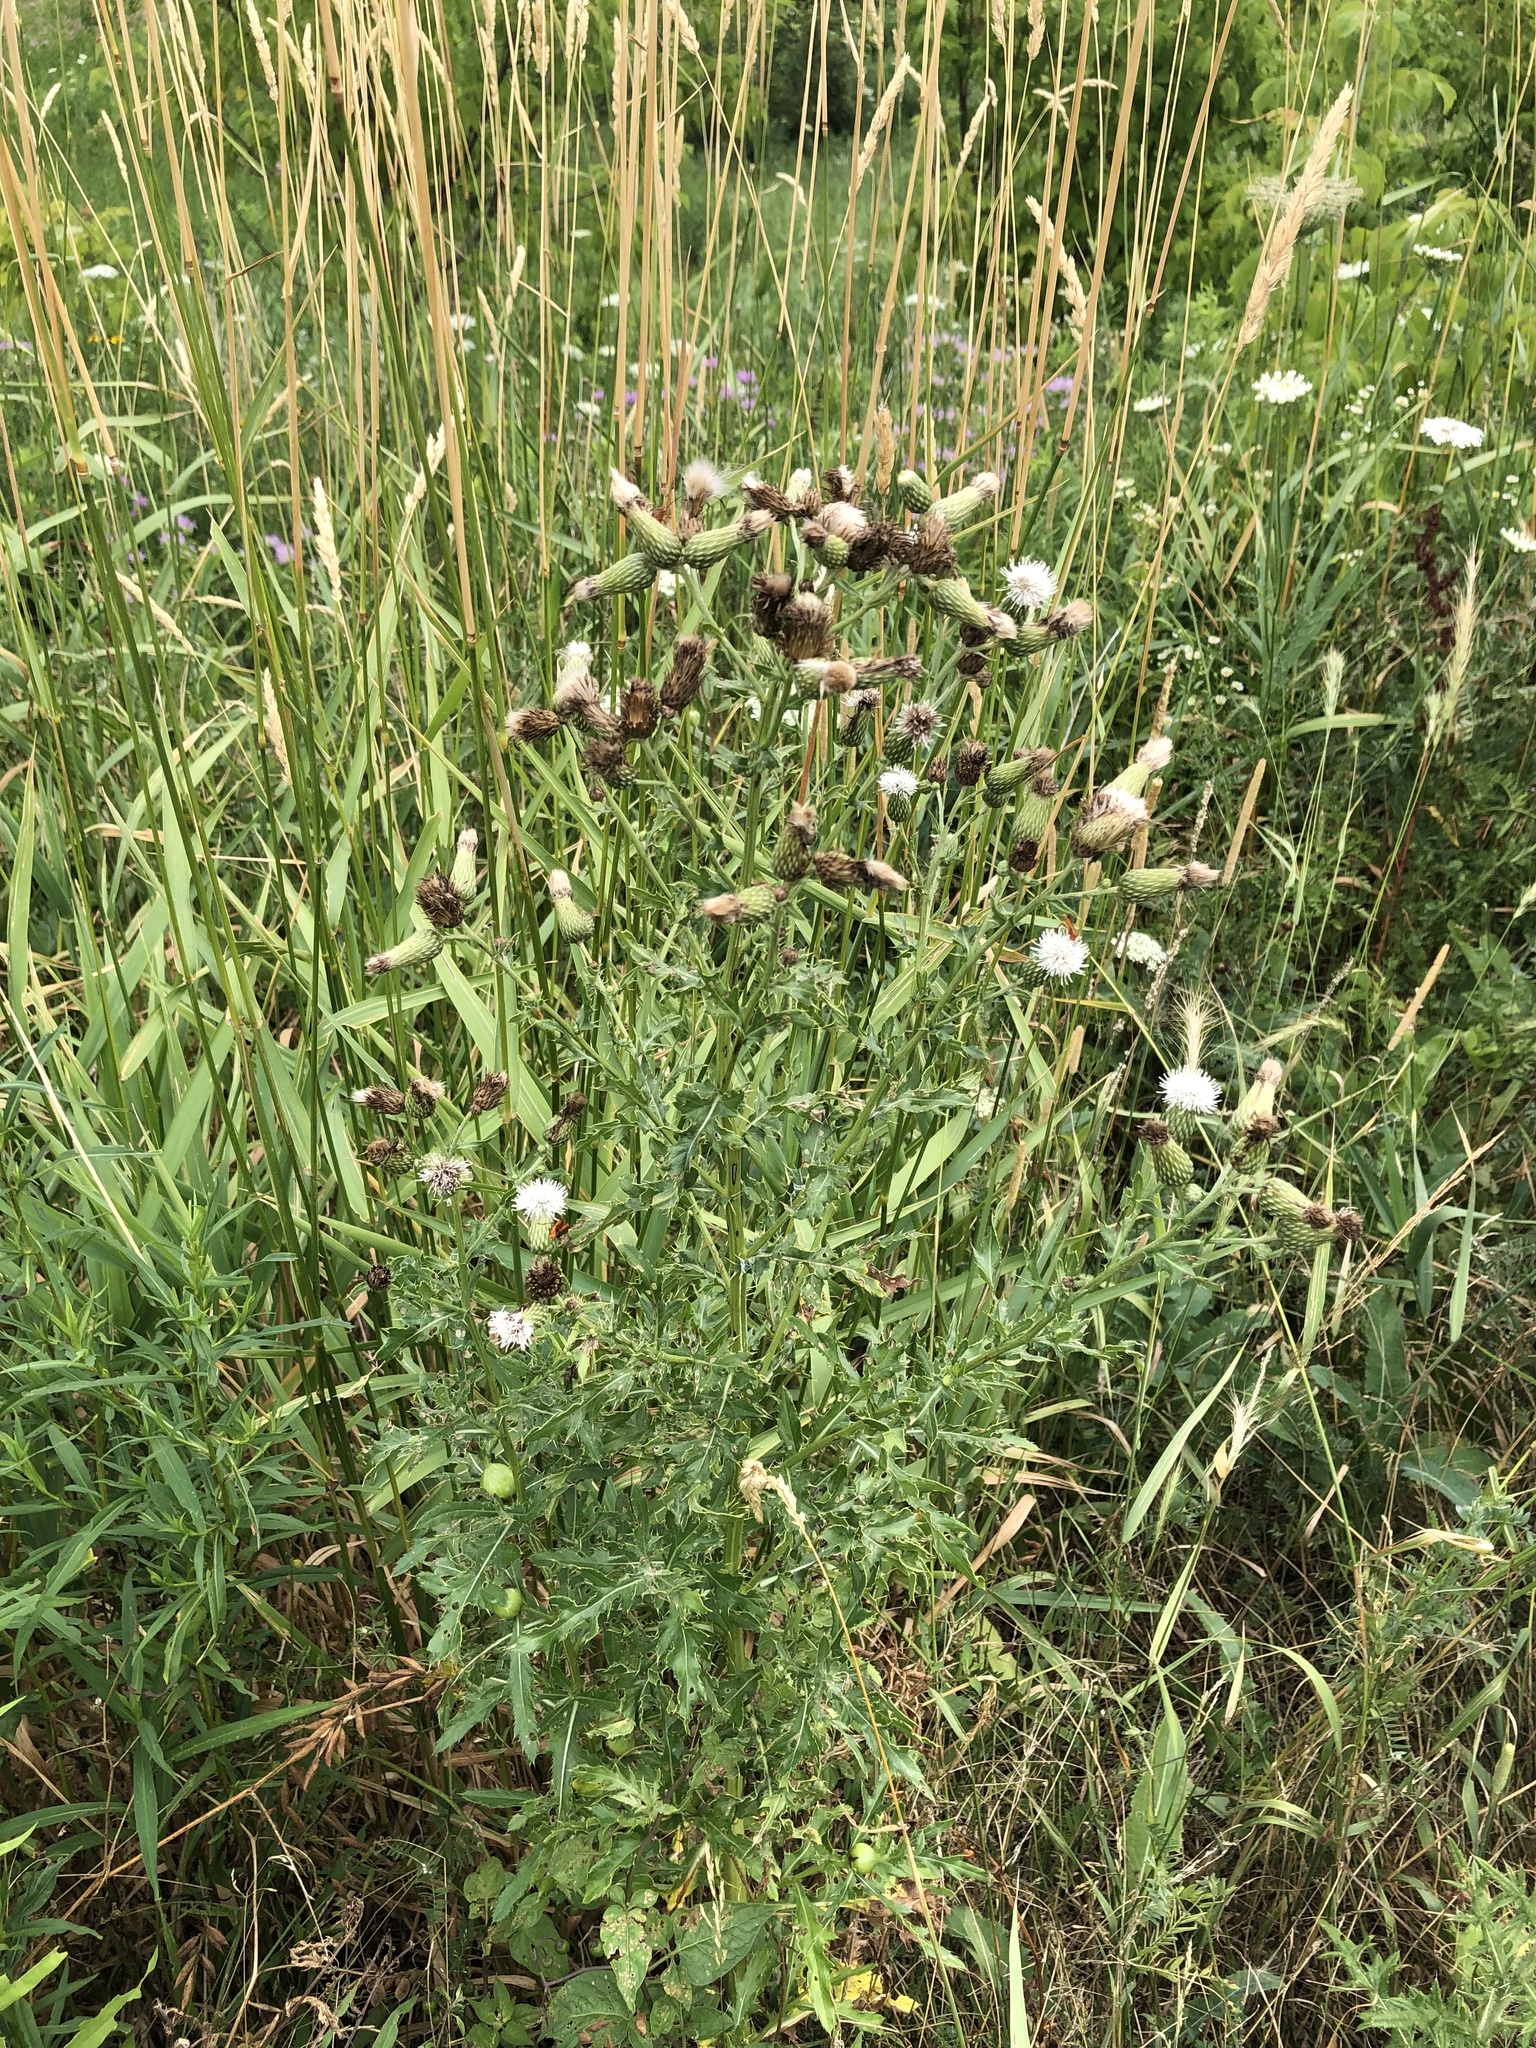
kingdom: Plantae
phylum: Tracheophyta
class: Magnoliopsida
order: Asterales
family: Asteraceae
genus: Cirsium
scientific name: Cirsium arvense
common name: Creeping thistle
